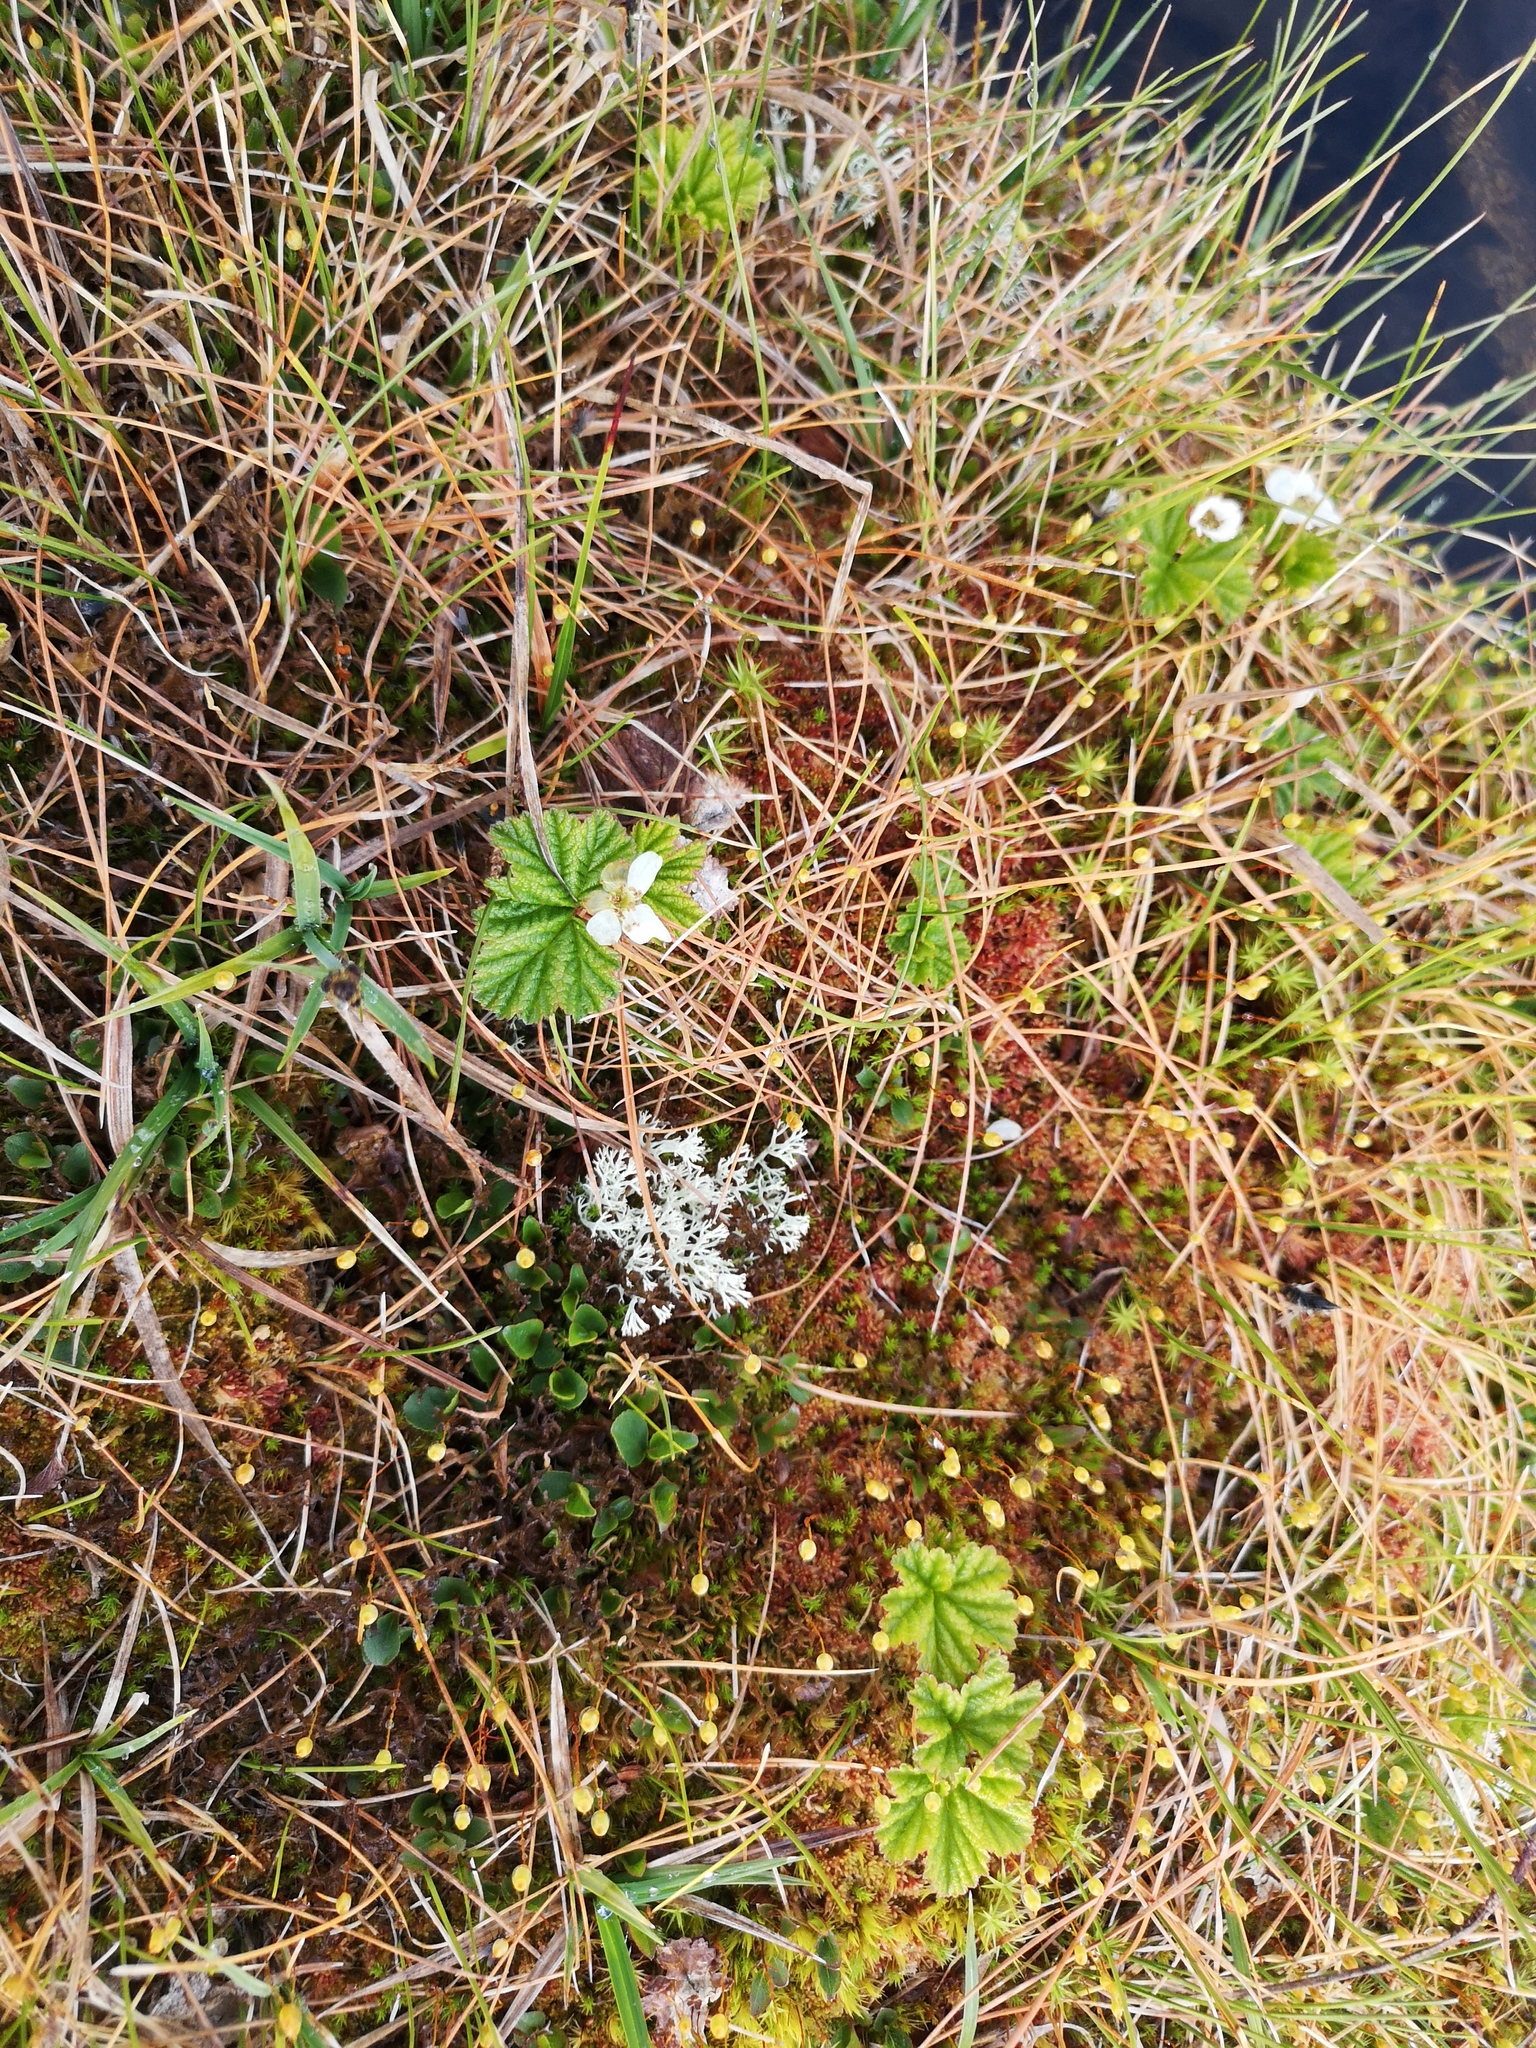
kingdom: Plantae
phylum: Tracheophyta
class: Magnoliopsida
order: Rosales
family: Rosaceae
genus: Rubus
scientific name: Rubus chamaemorus
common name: Cloudberry
